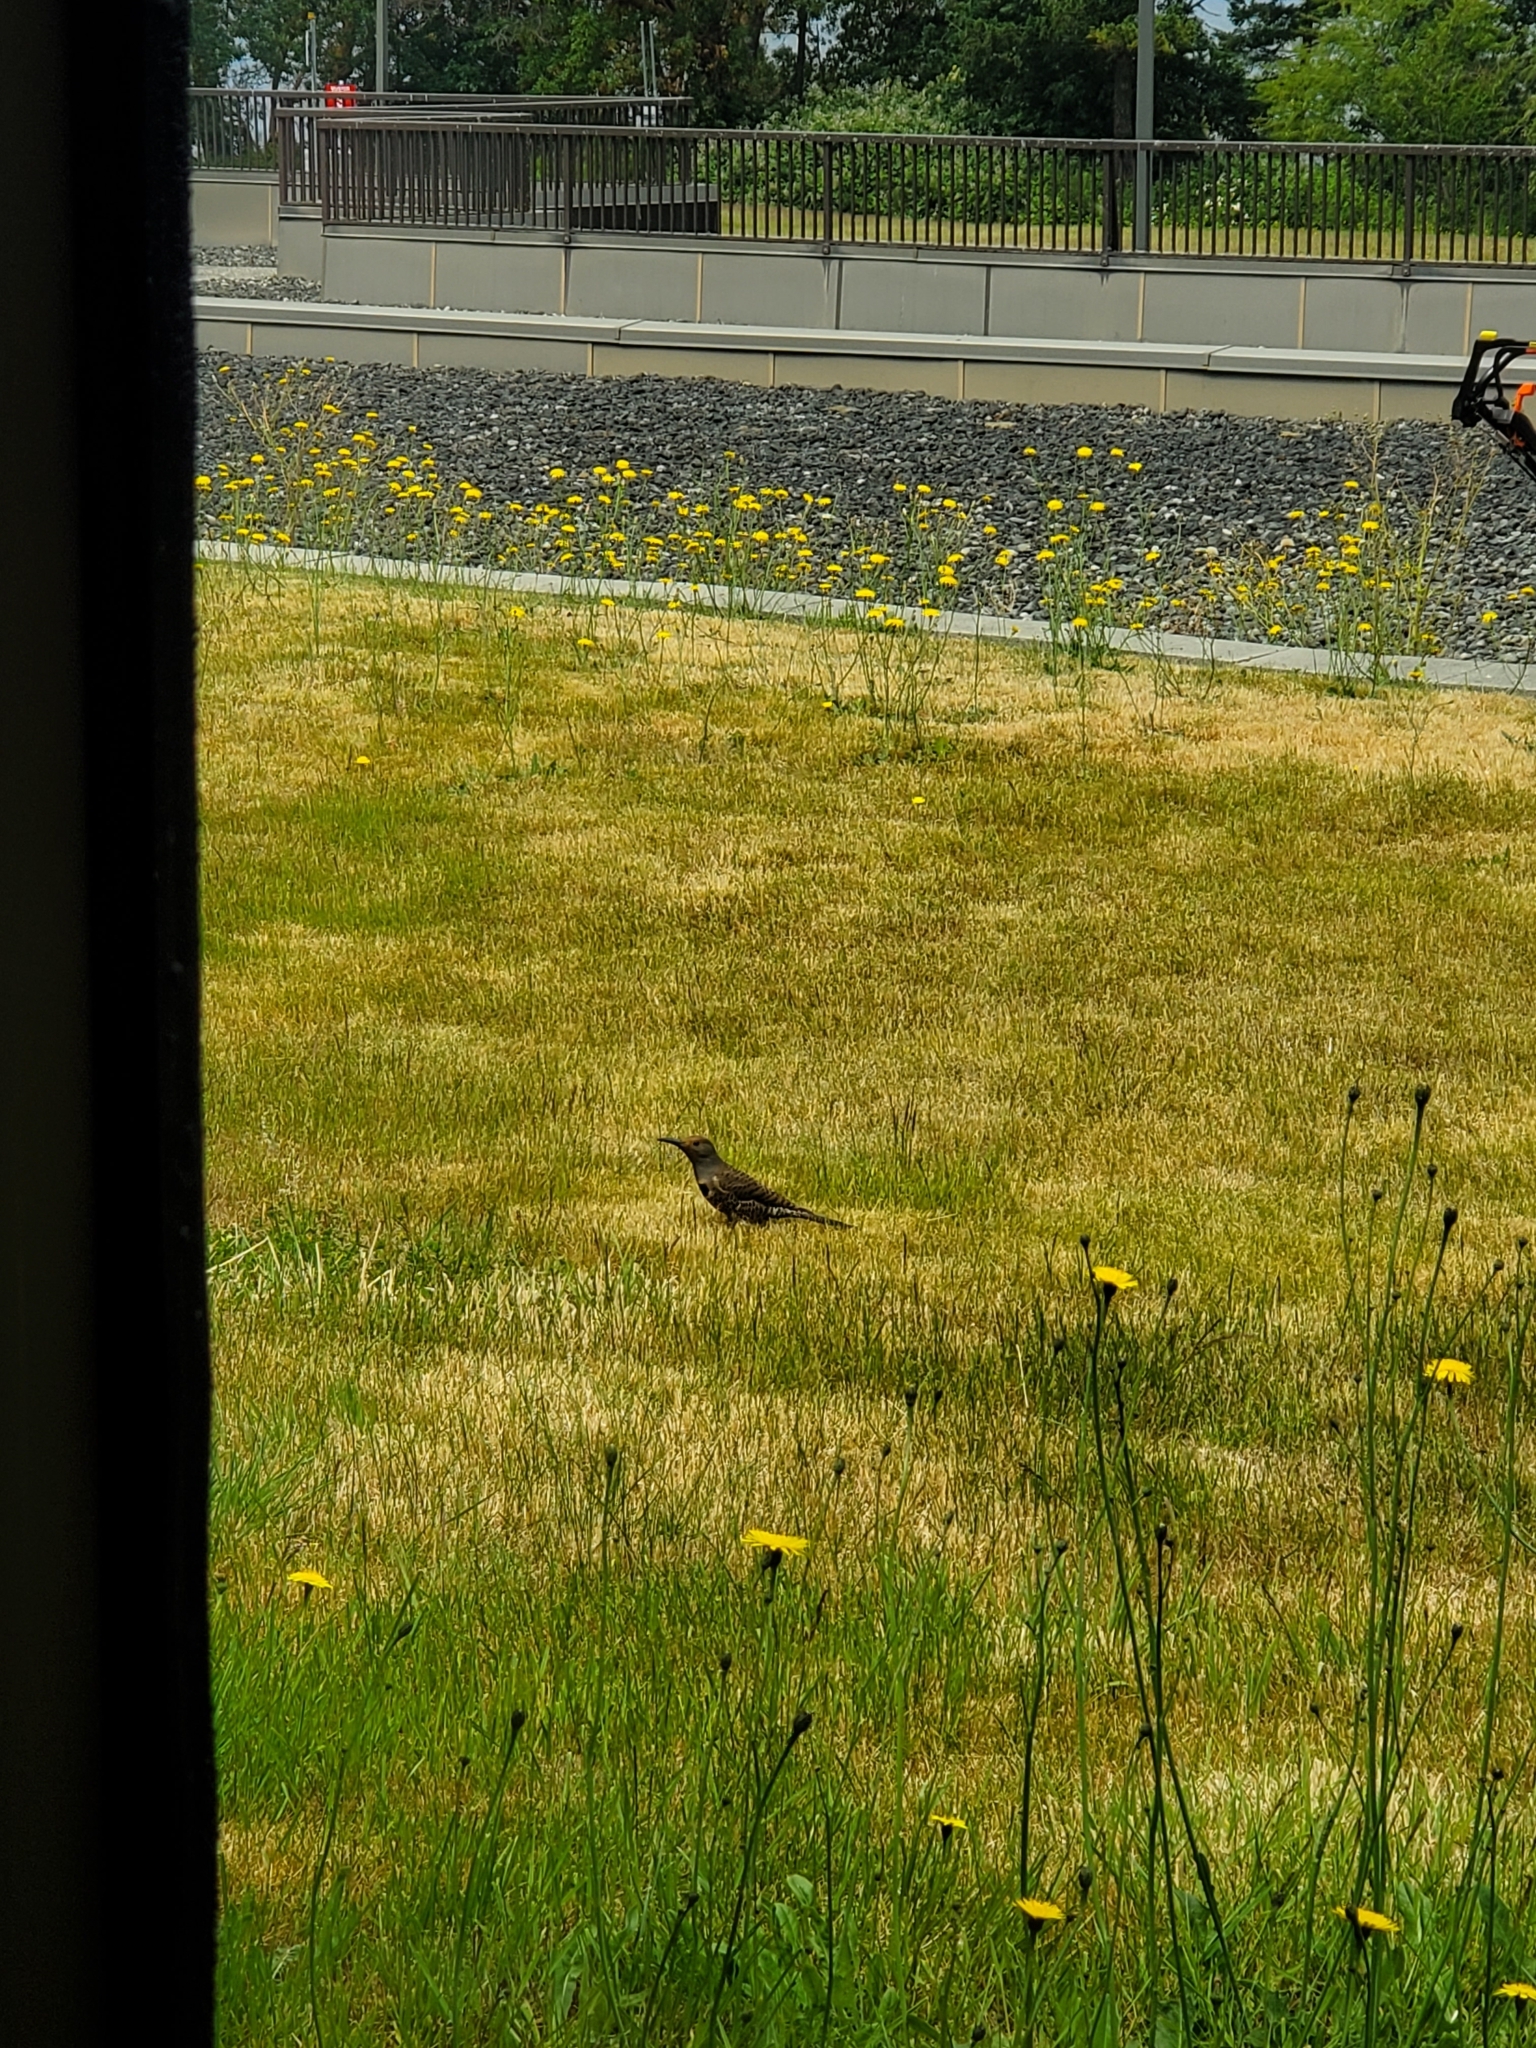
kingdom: Animalia
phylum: Chordata
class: Aves
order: Piciformes
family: Picidae
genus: Colaptes
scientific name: Colaptes auratus
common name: Northern flicker
